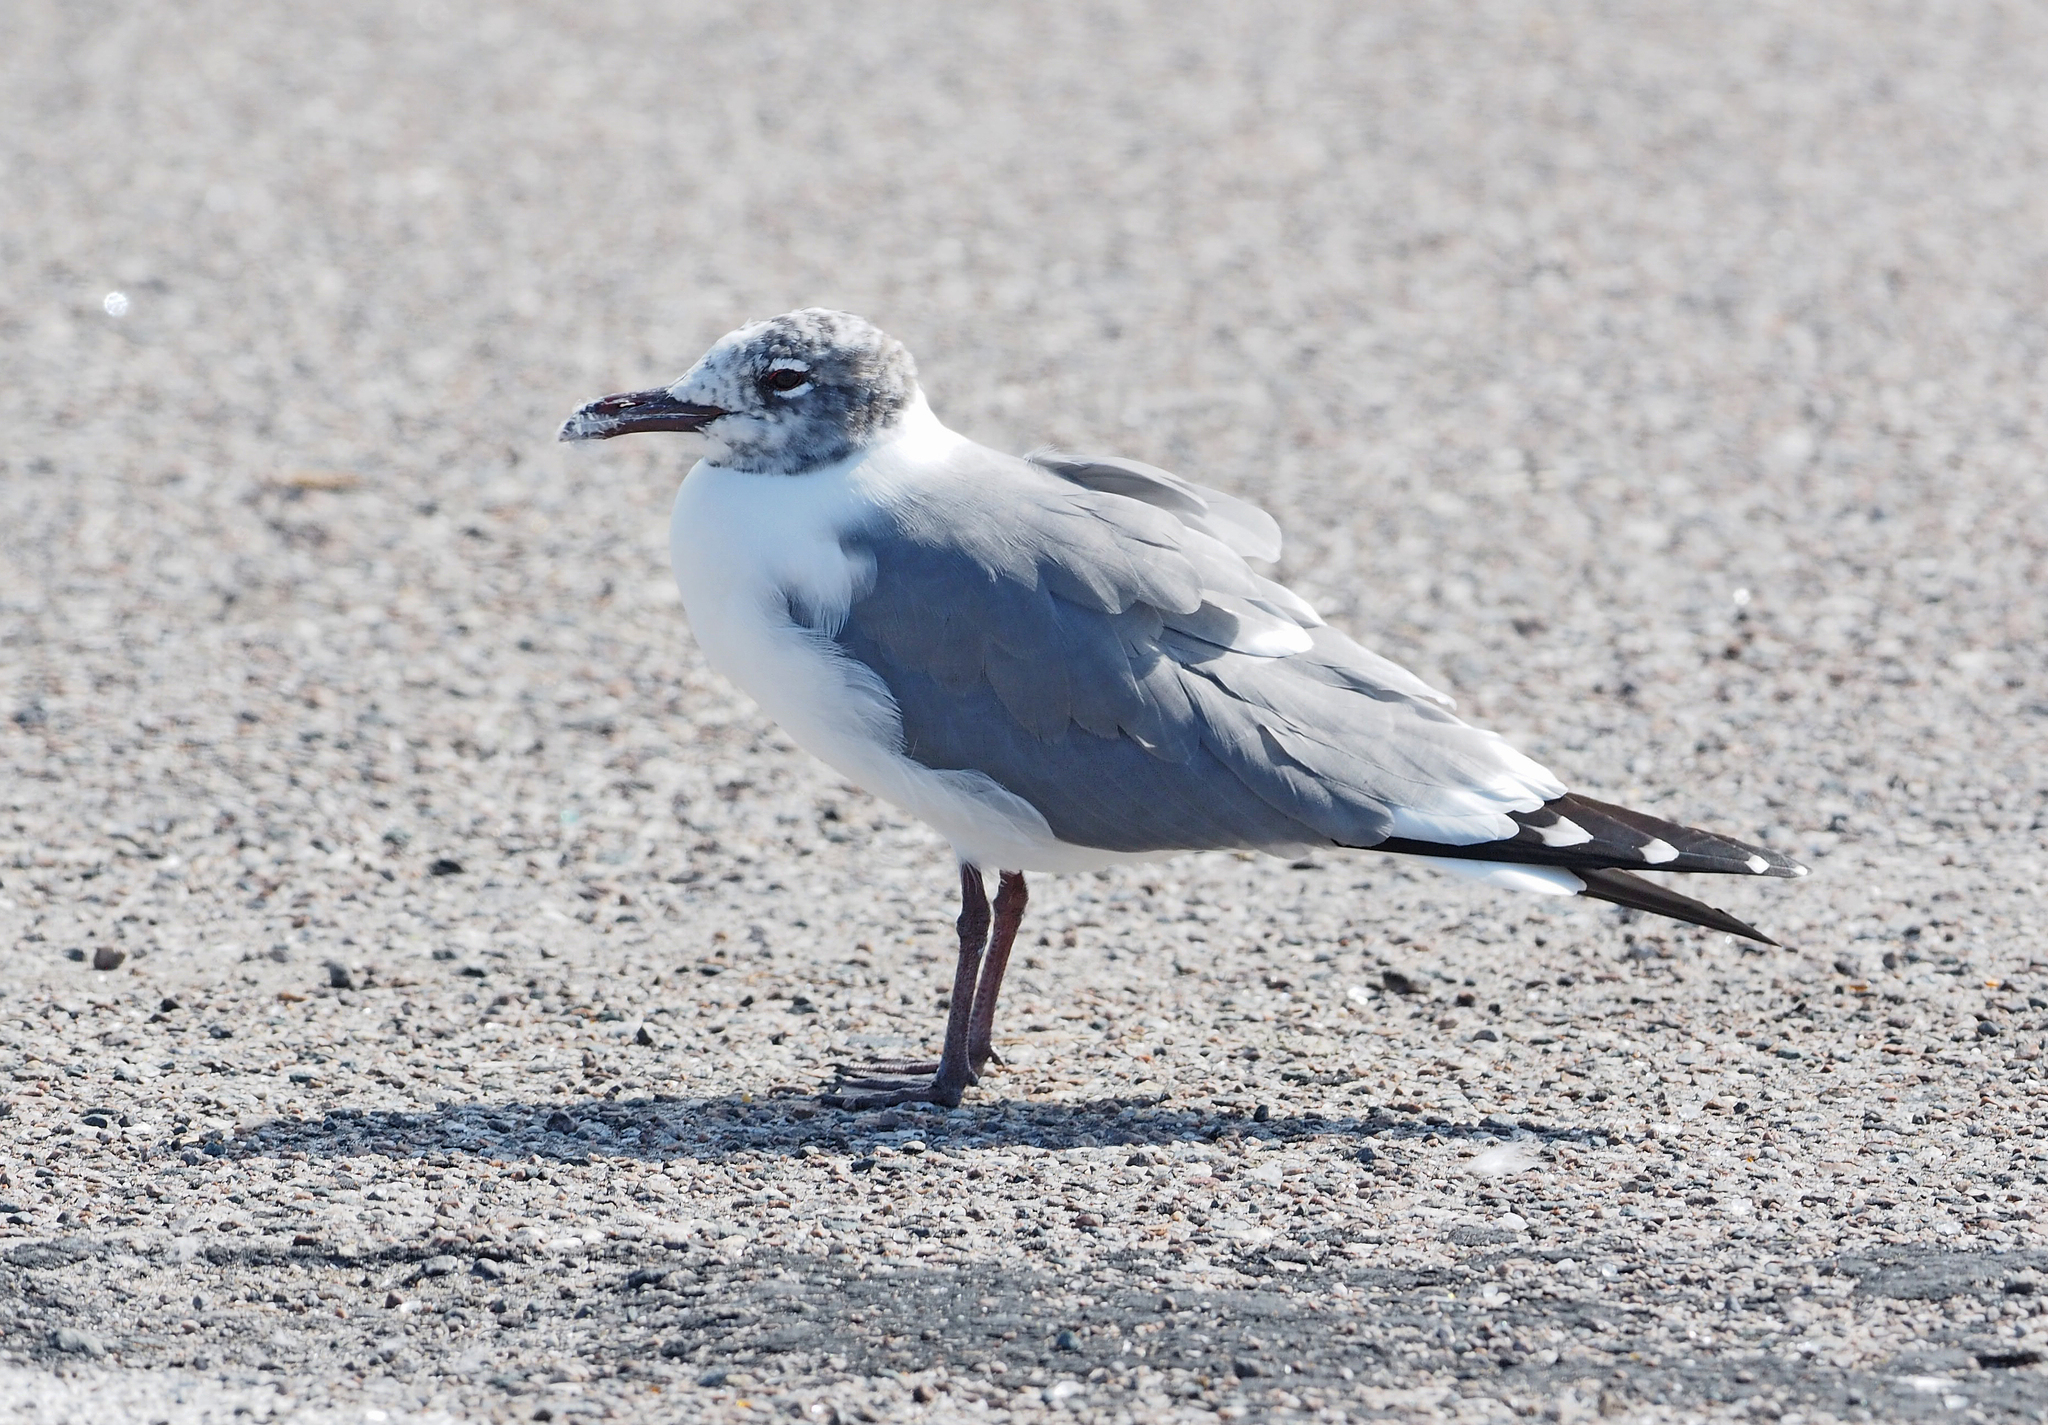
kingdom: Animalia
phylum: Chordata
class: Aves
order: Charadriiformes
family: Laridae
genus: Leucophaeus
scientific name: Leucophaeus atricilla
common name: Laughing gull
